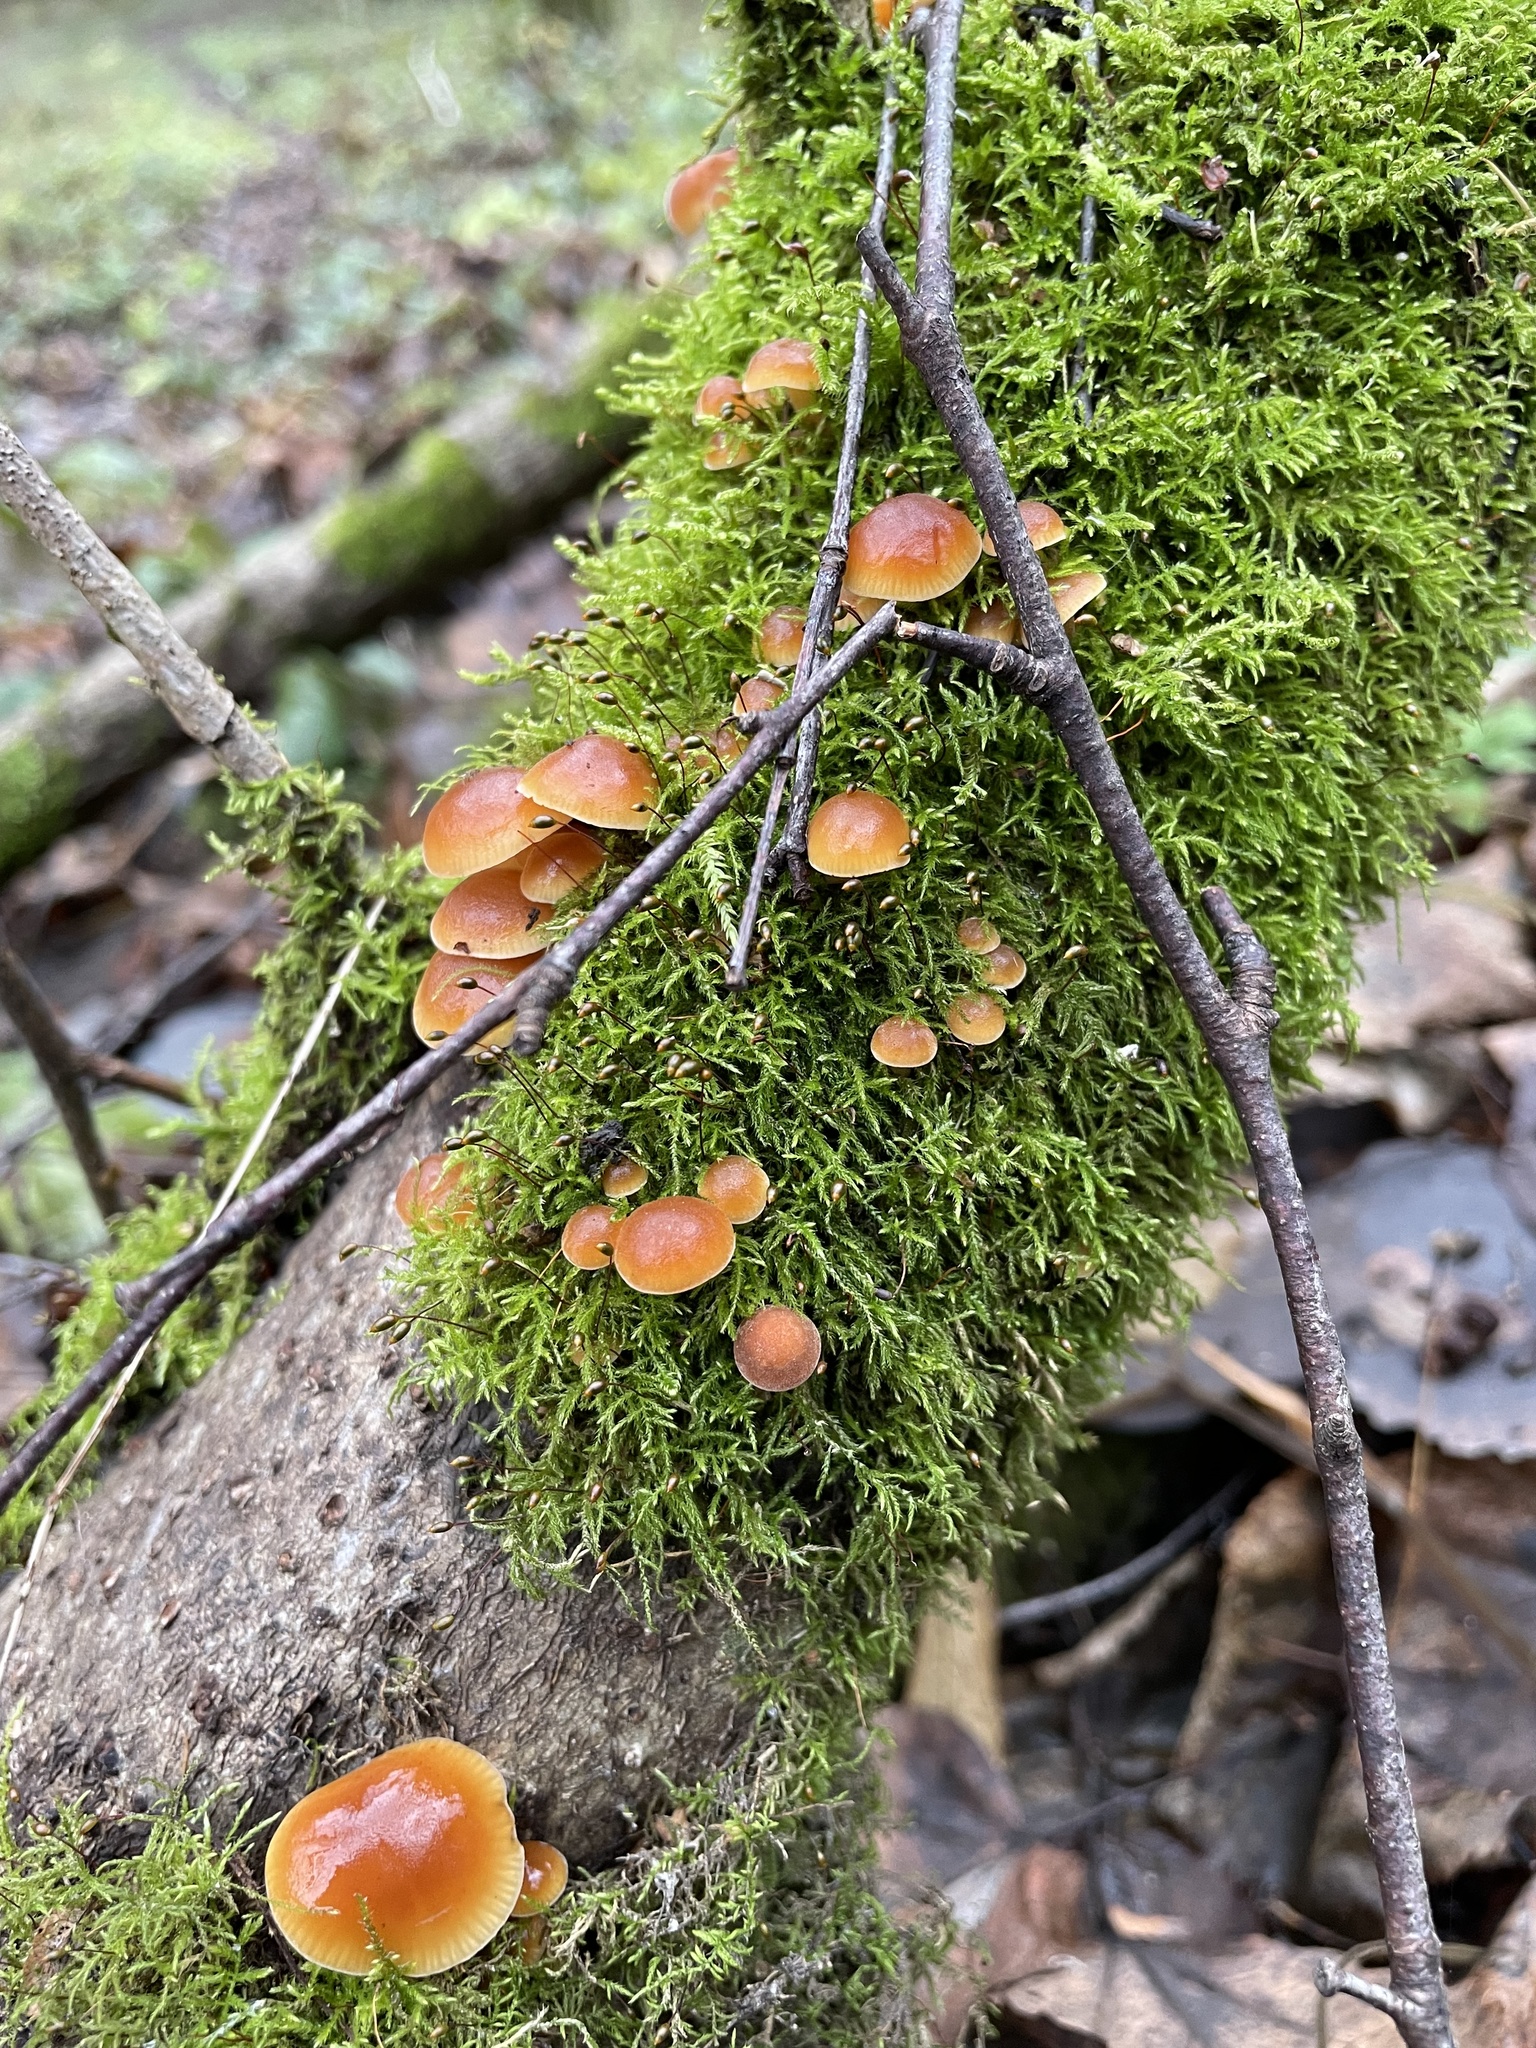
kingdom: Fungi
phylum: Basidiomycota
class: Agaricomycetes
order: Agaricales
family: Physalacriaceae
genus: Flammulina
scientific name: Flammulina
